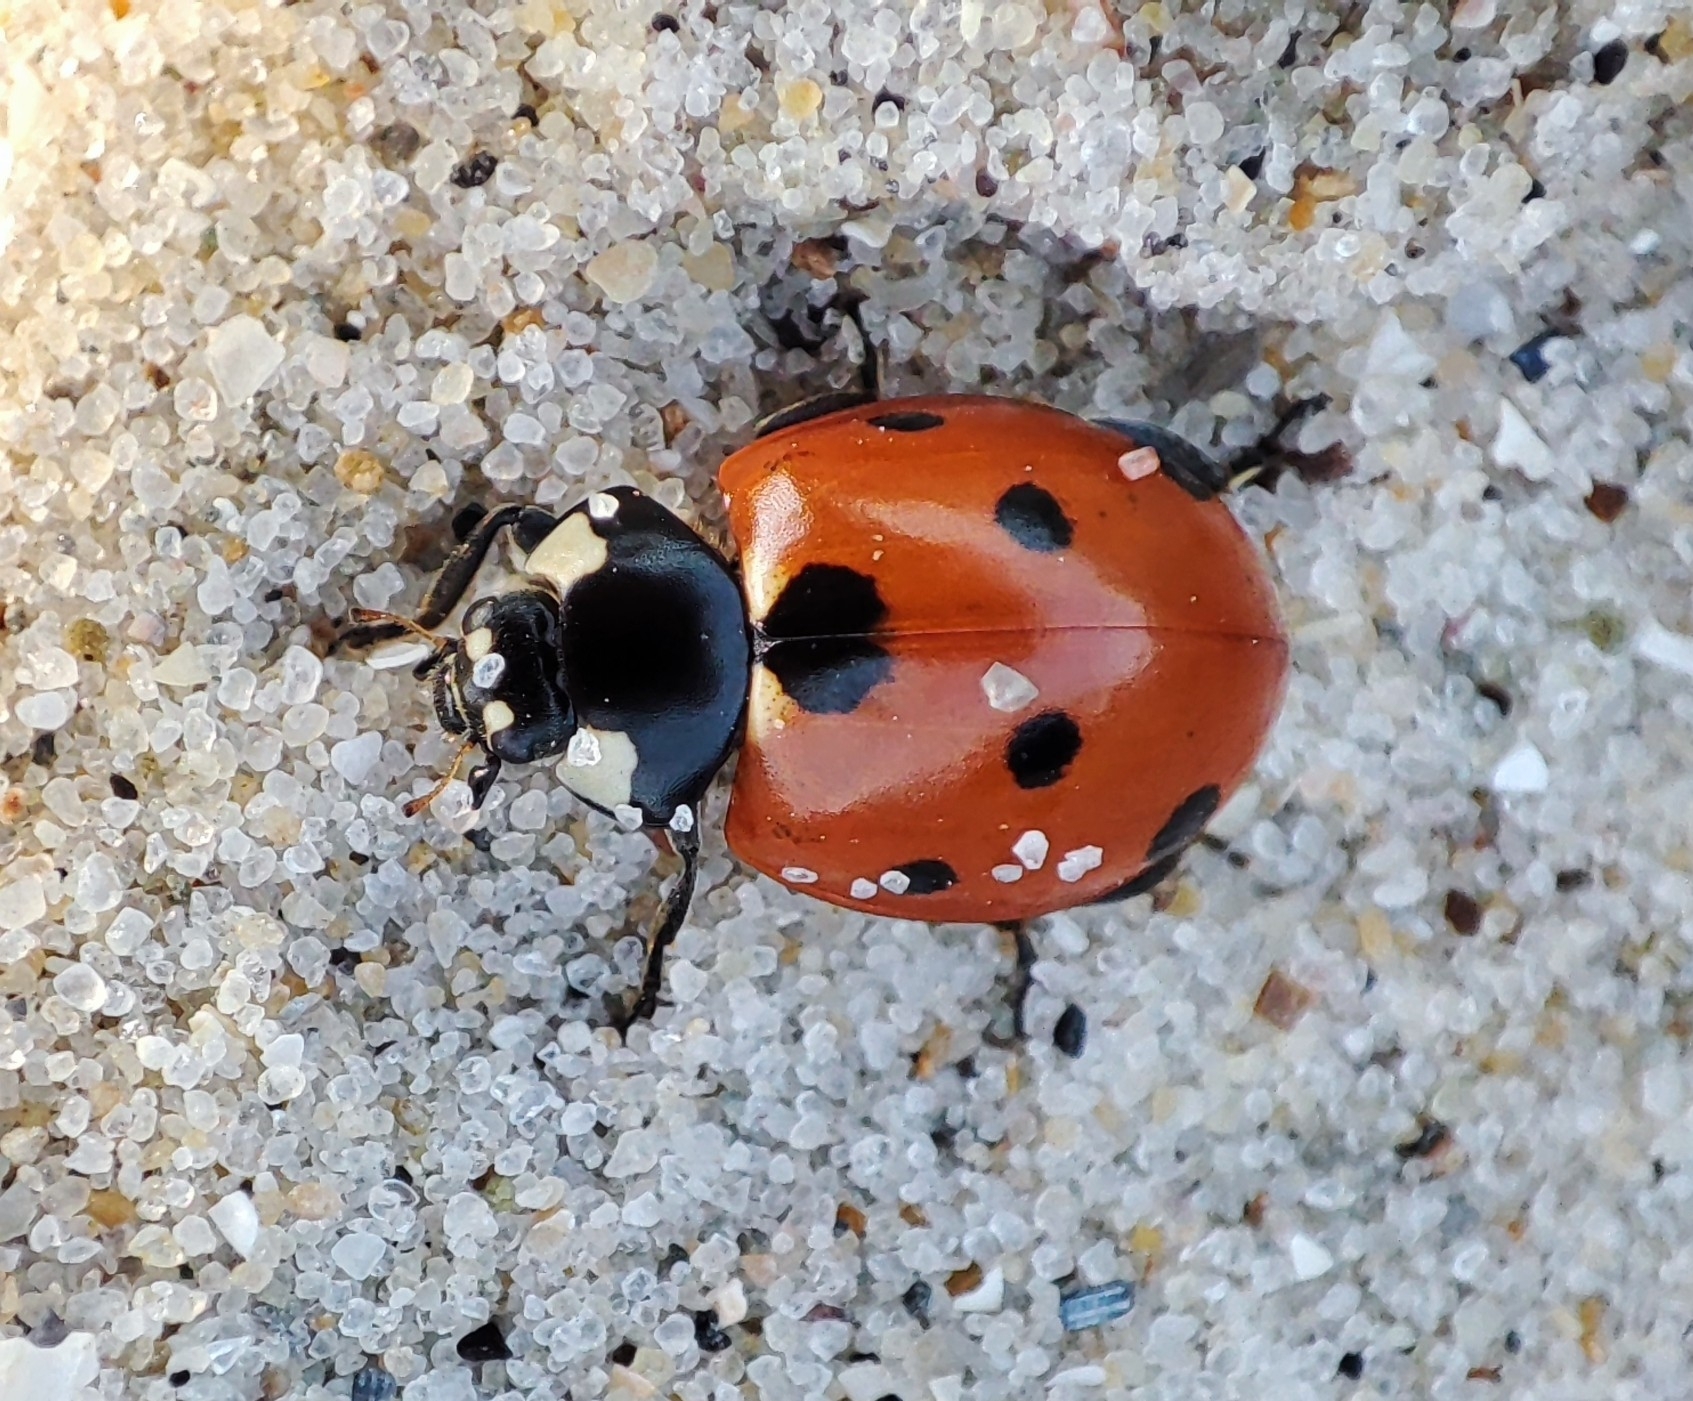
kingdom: Animalia
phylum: Arthropoda
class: Insecta
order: Coleoptera
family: Coccinellidae
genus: Coccinella
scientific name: Coccinella septempunctata
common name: Sevenspotted lady beetle
